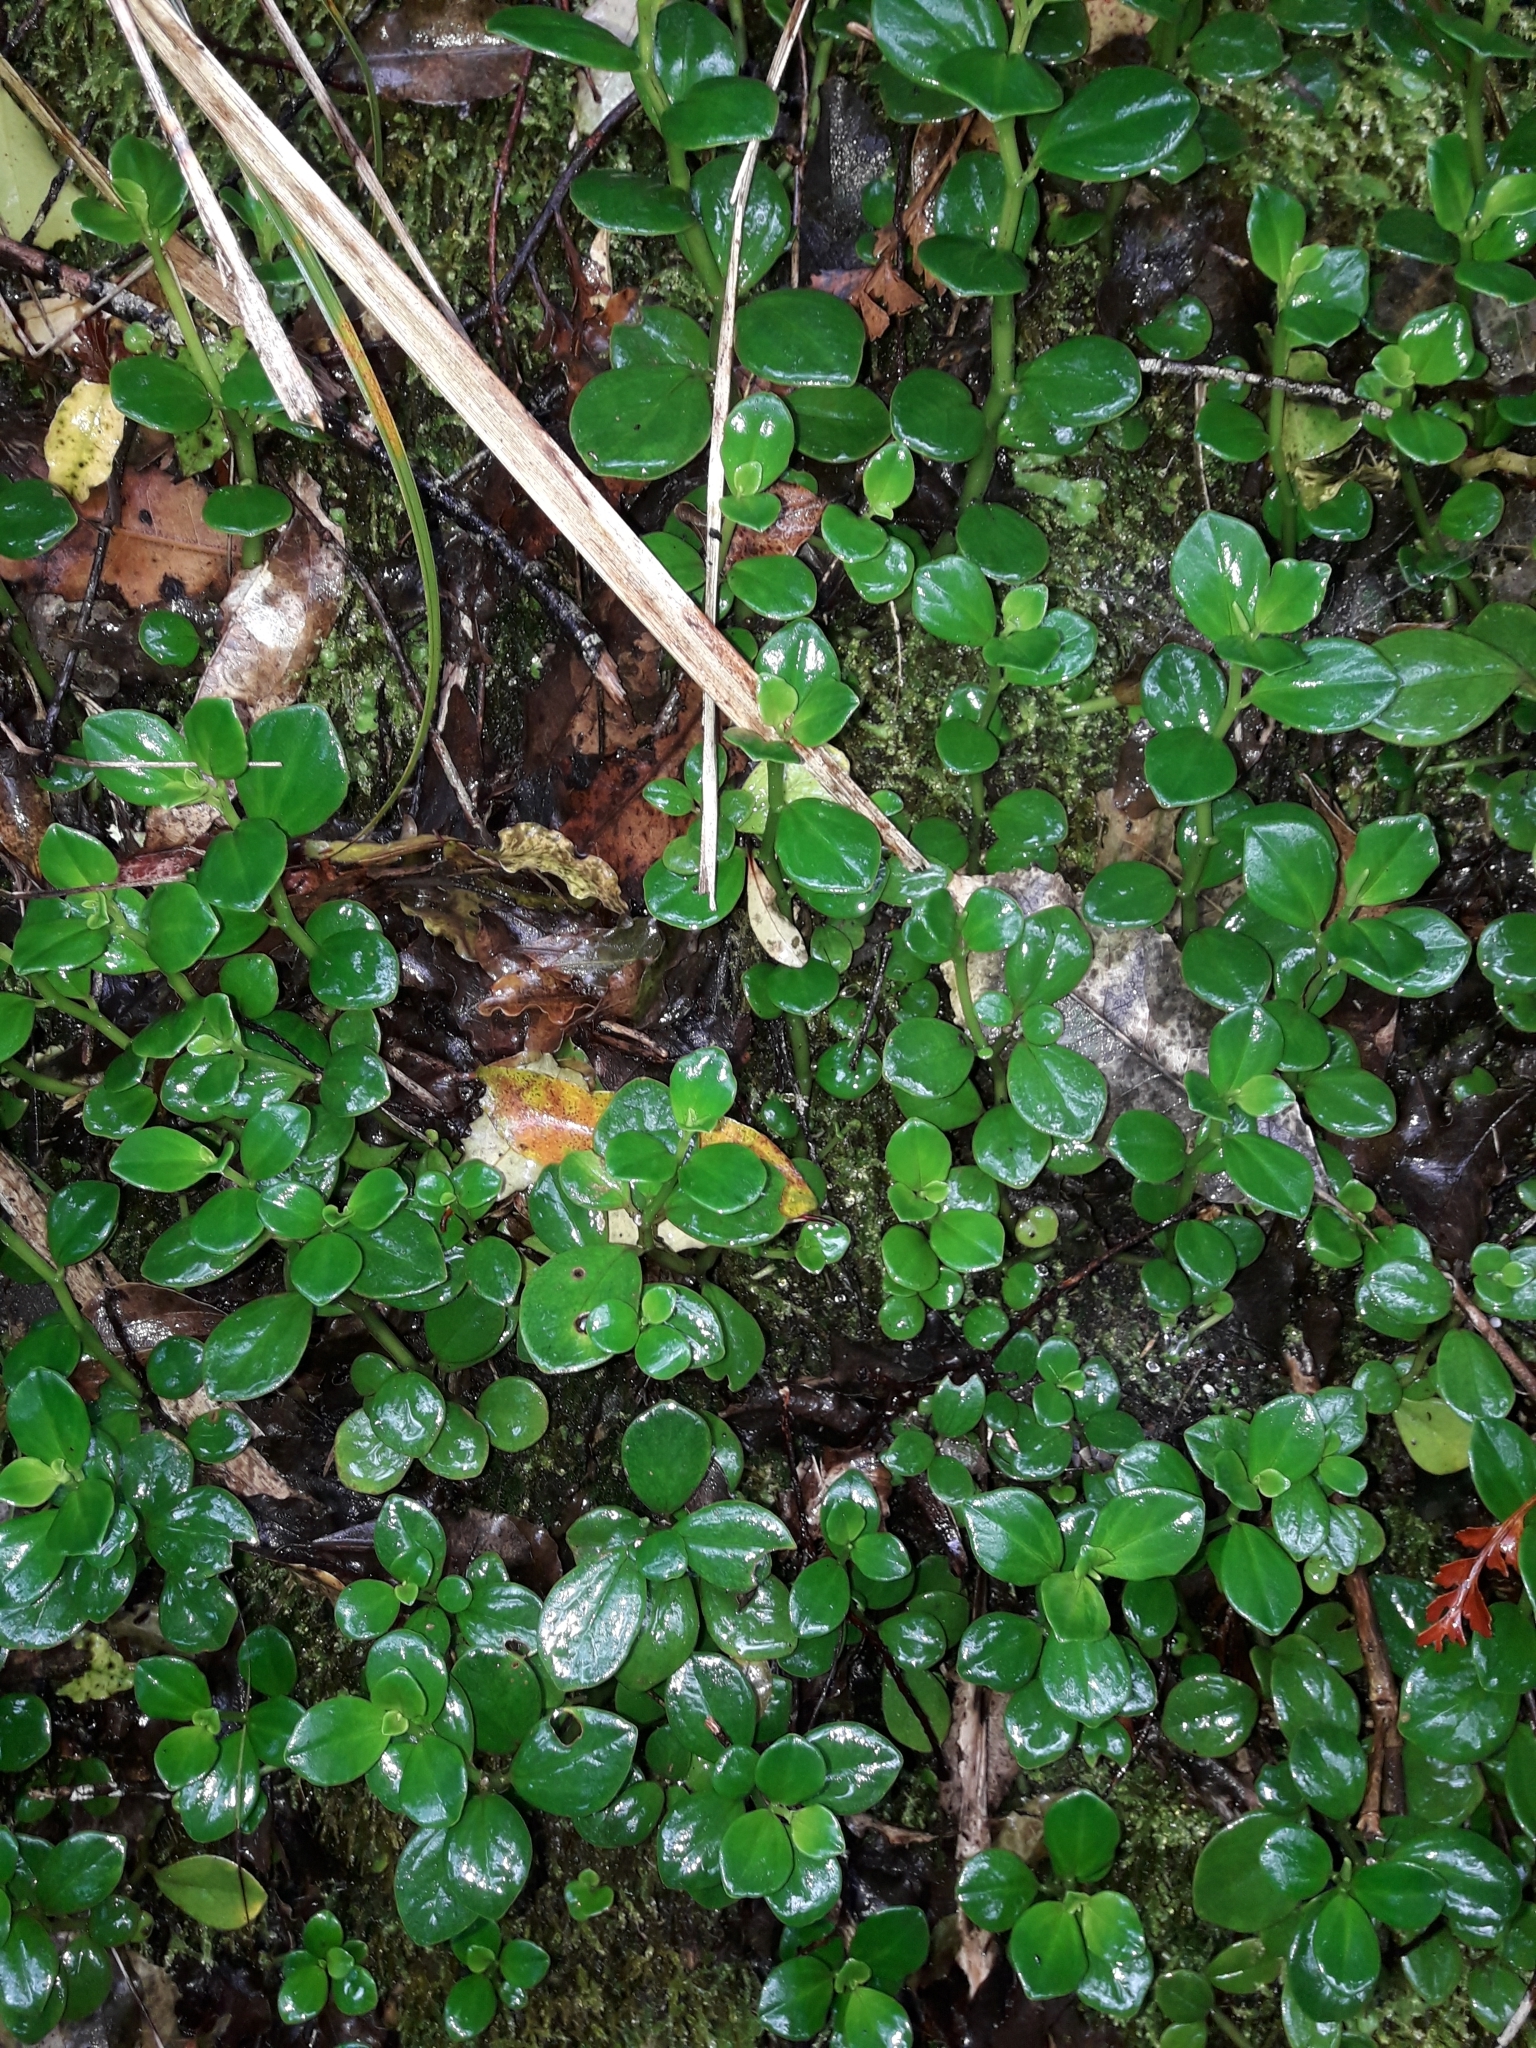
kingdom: Plantae
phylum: Tracheophyta
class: Magnoliopsida
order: Piperales
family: Piperaceae
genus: Peperomia
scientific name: Peperomia urvilleana
